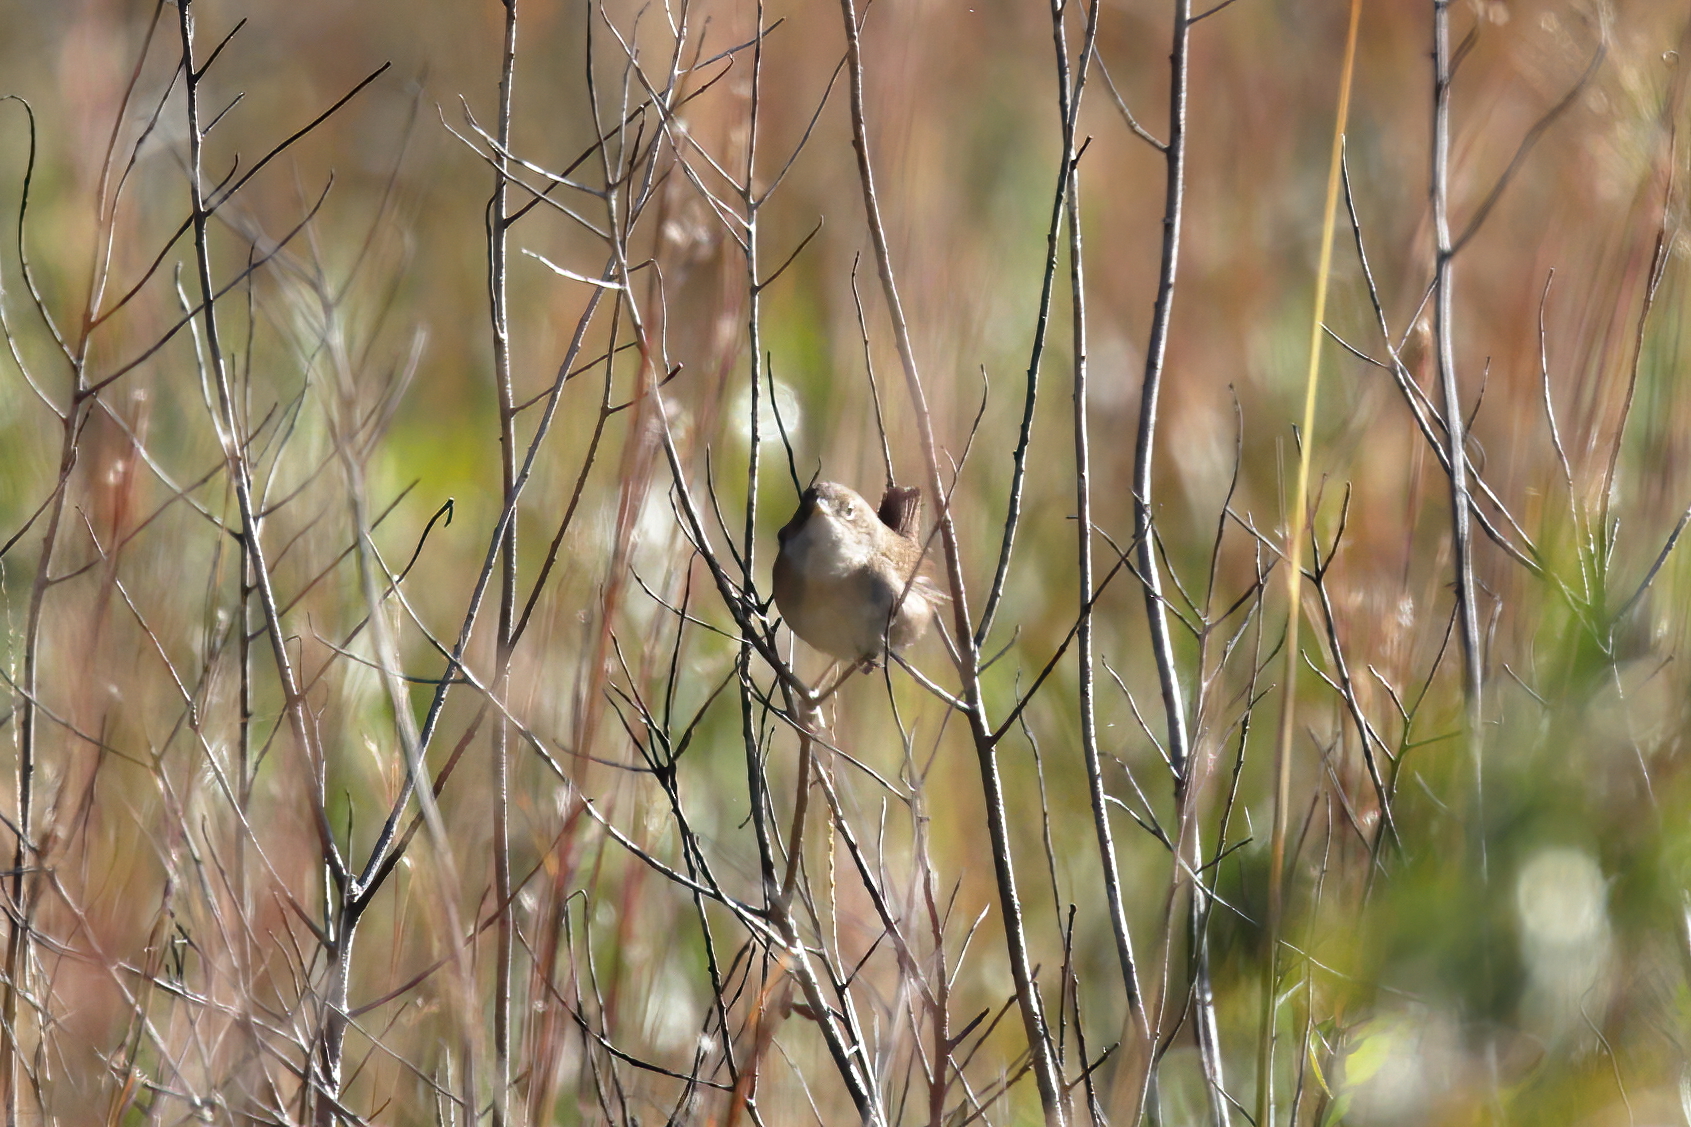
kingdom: Animalia
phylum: Chordata
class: Aves
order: Passeriformes
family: Troglodytidae
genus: Troglodytes
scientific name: Troglodytes aedon
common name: House wren
